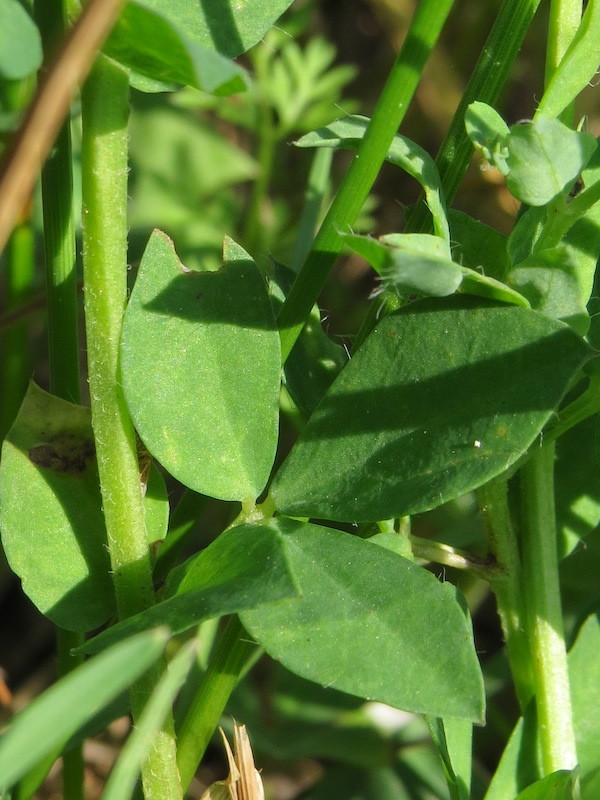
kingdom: Plantae
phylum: Tracheophyta
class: Magnoliopsida
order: Fabales
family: Fabaceae
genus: Lotus
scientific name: Lotus corniculatus
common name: Common bird's-foot-trefoil
